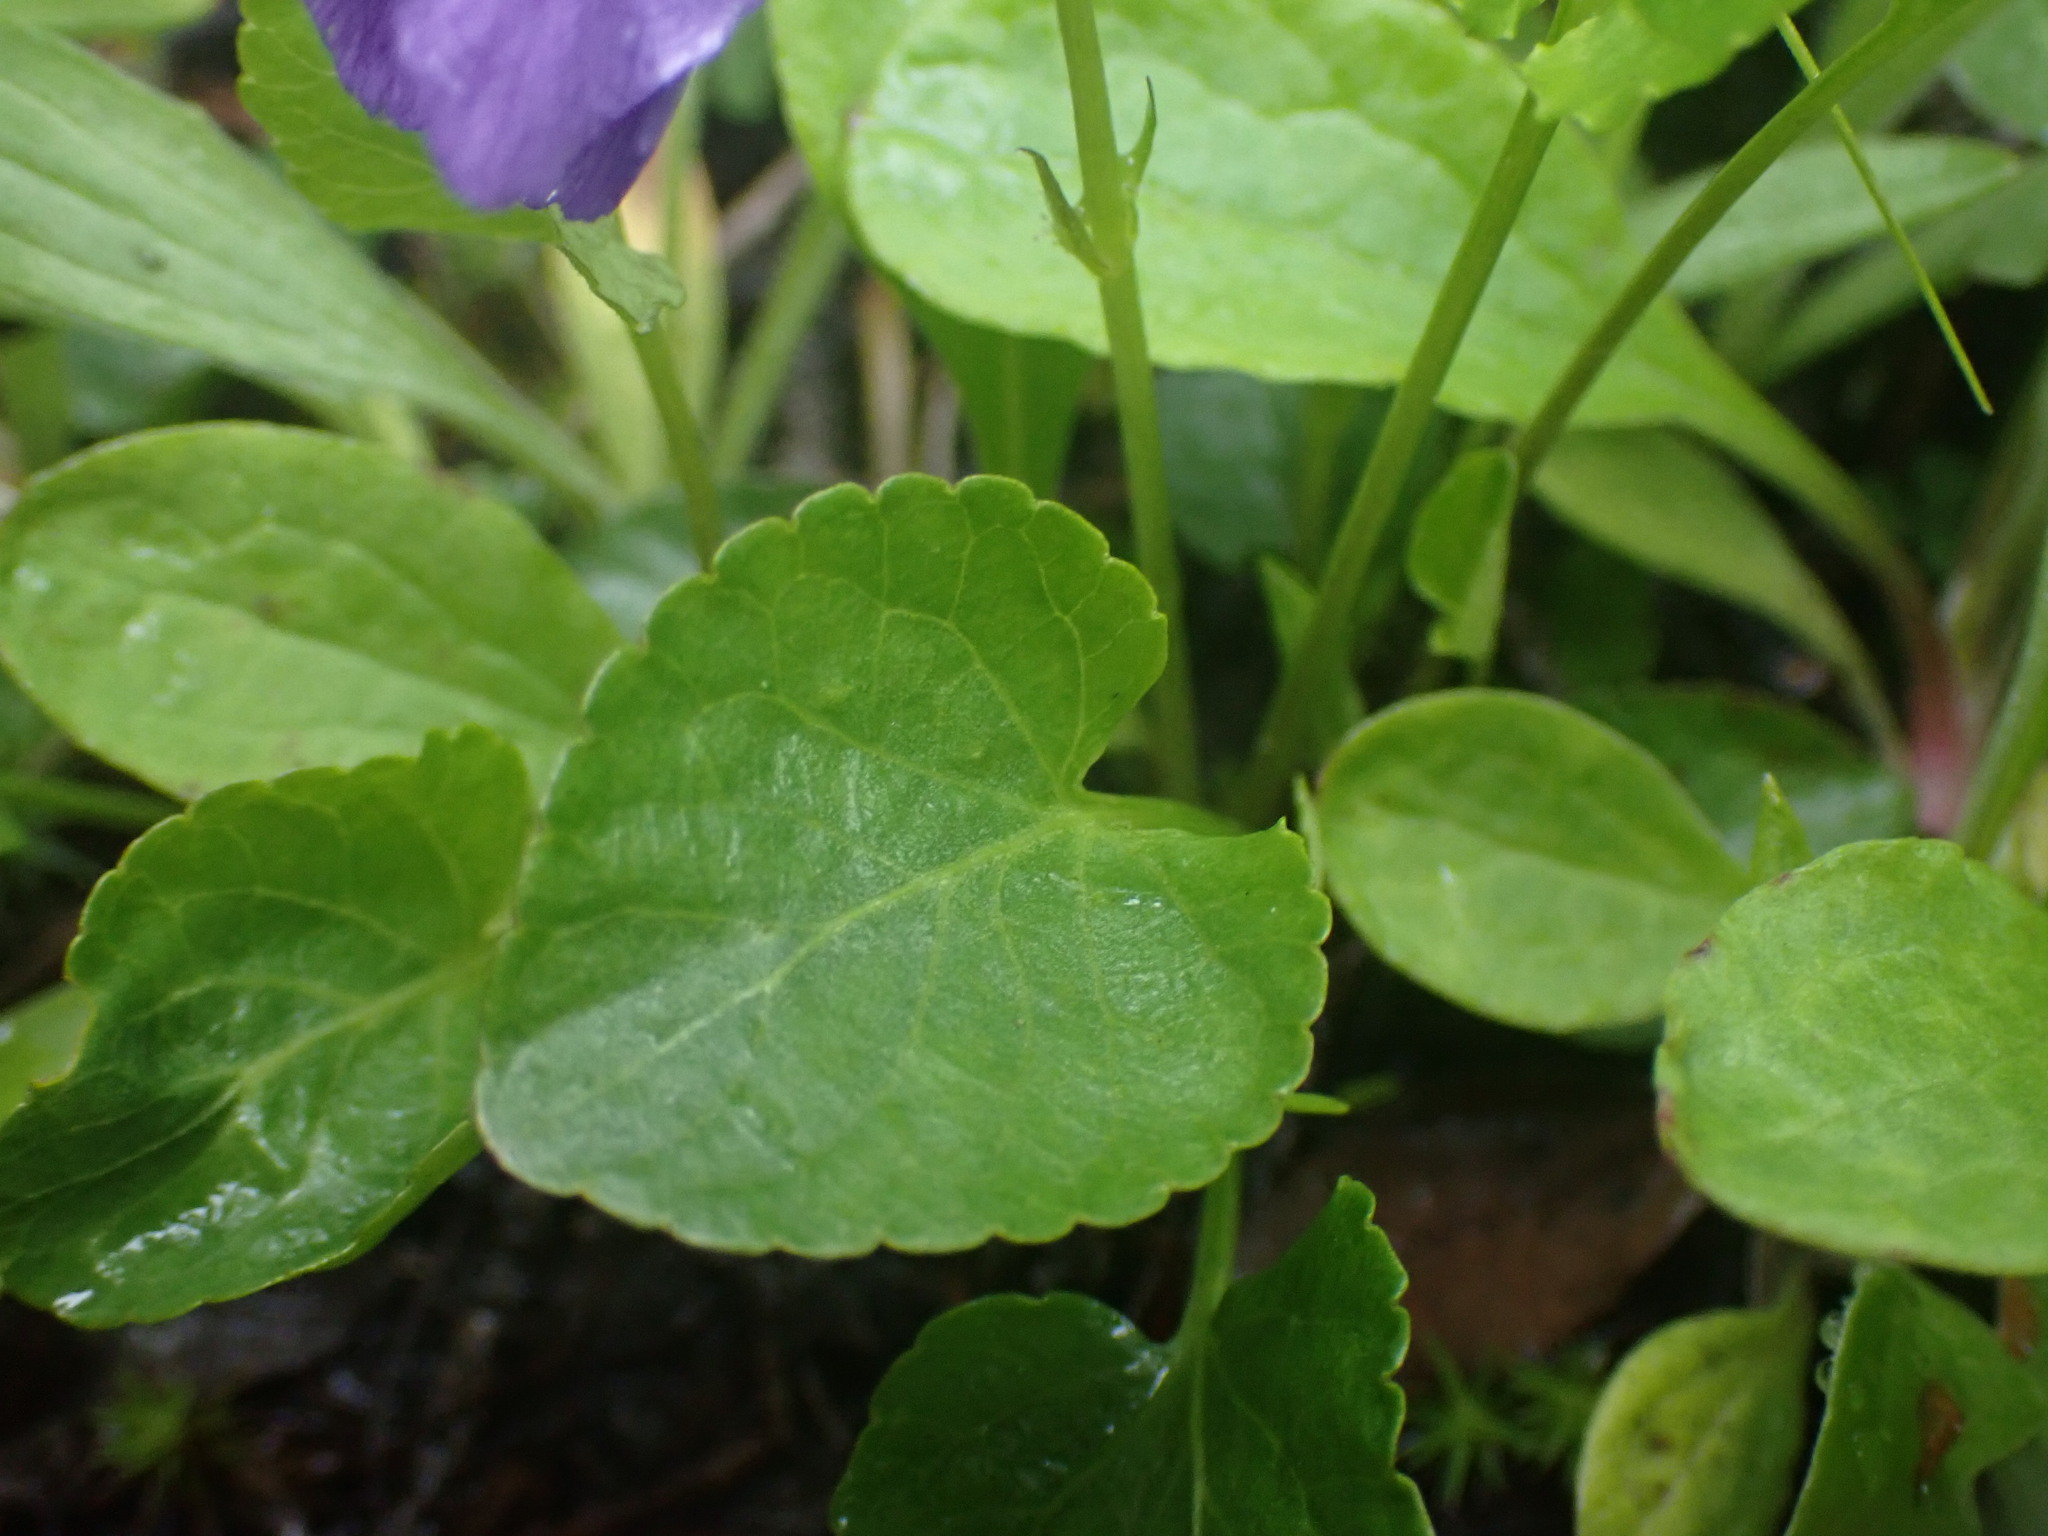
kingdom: Plantae
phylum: Tracheophyta
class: Magnoliopsida
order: Malpighiales
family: Violaceae
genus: Viola
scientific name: Viola adunca
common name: Sand violet
